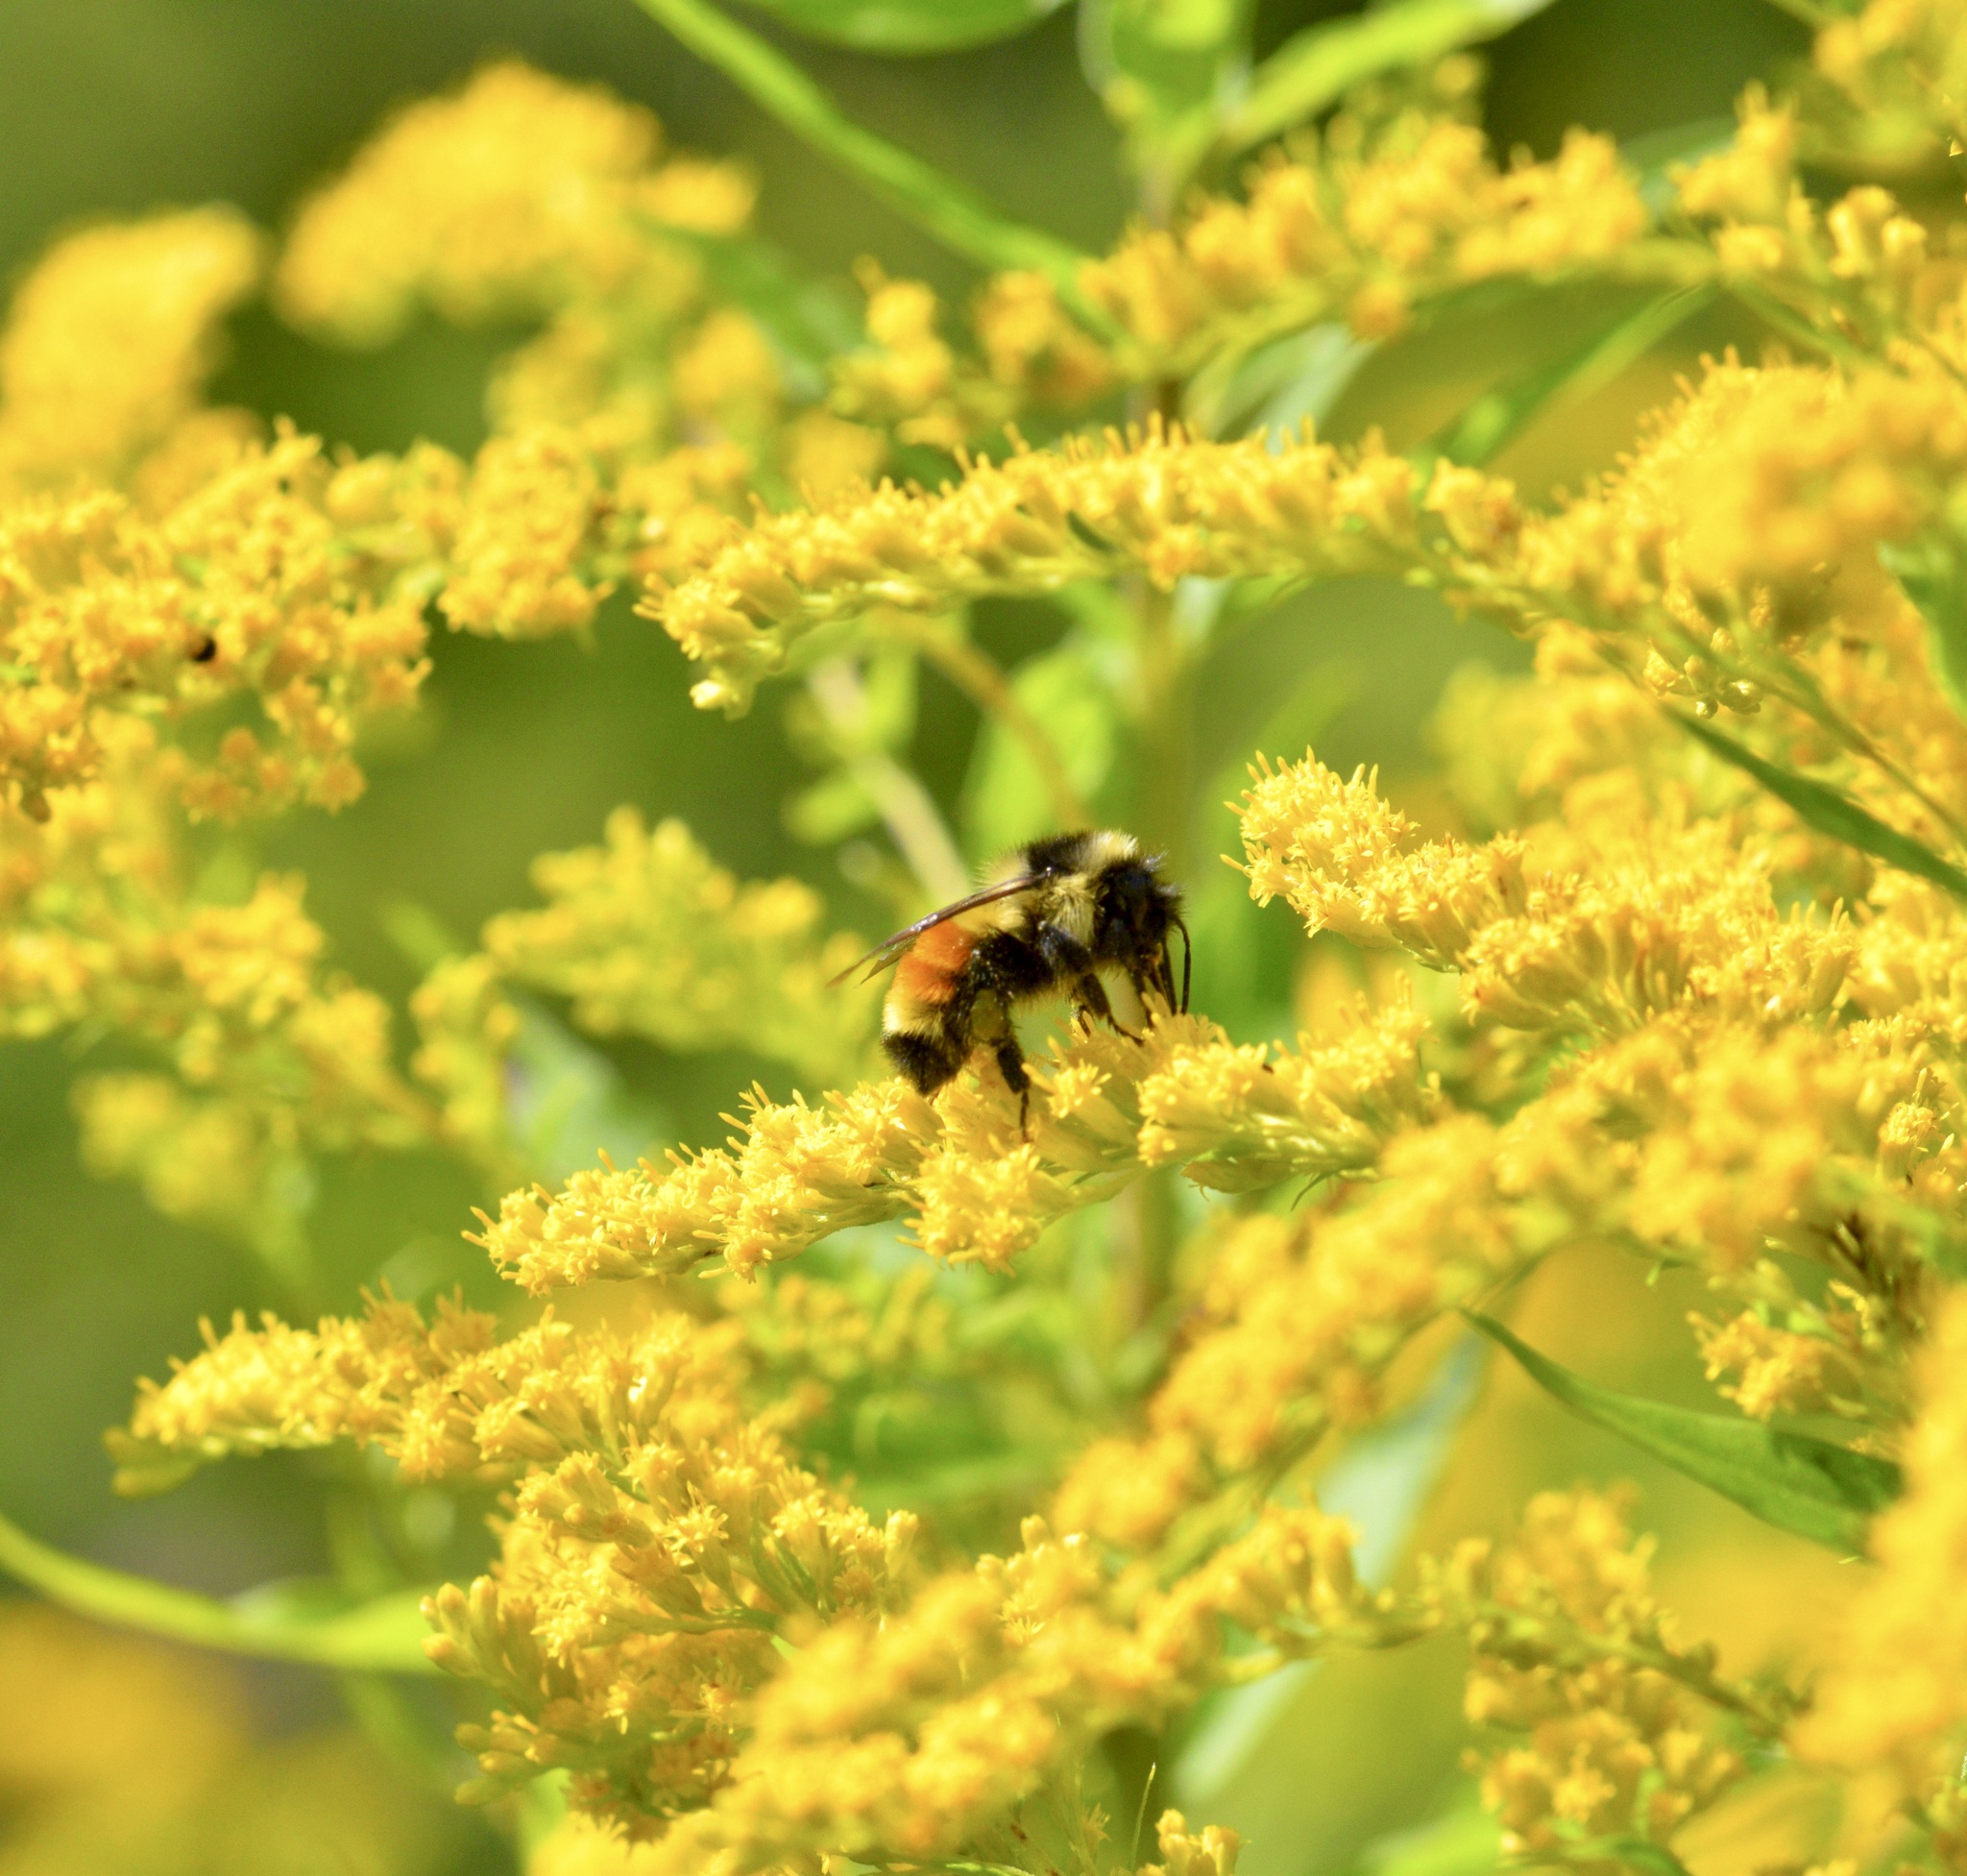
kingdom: Animalia
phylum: Arthropoda
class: Insecta
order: Hymenoptera
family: Apidae
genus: Bombus
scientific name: Bombus ternarius
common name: Tri-colored bumble bee
